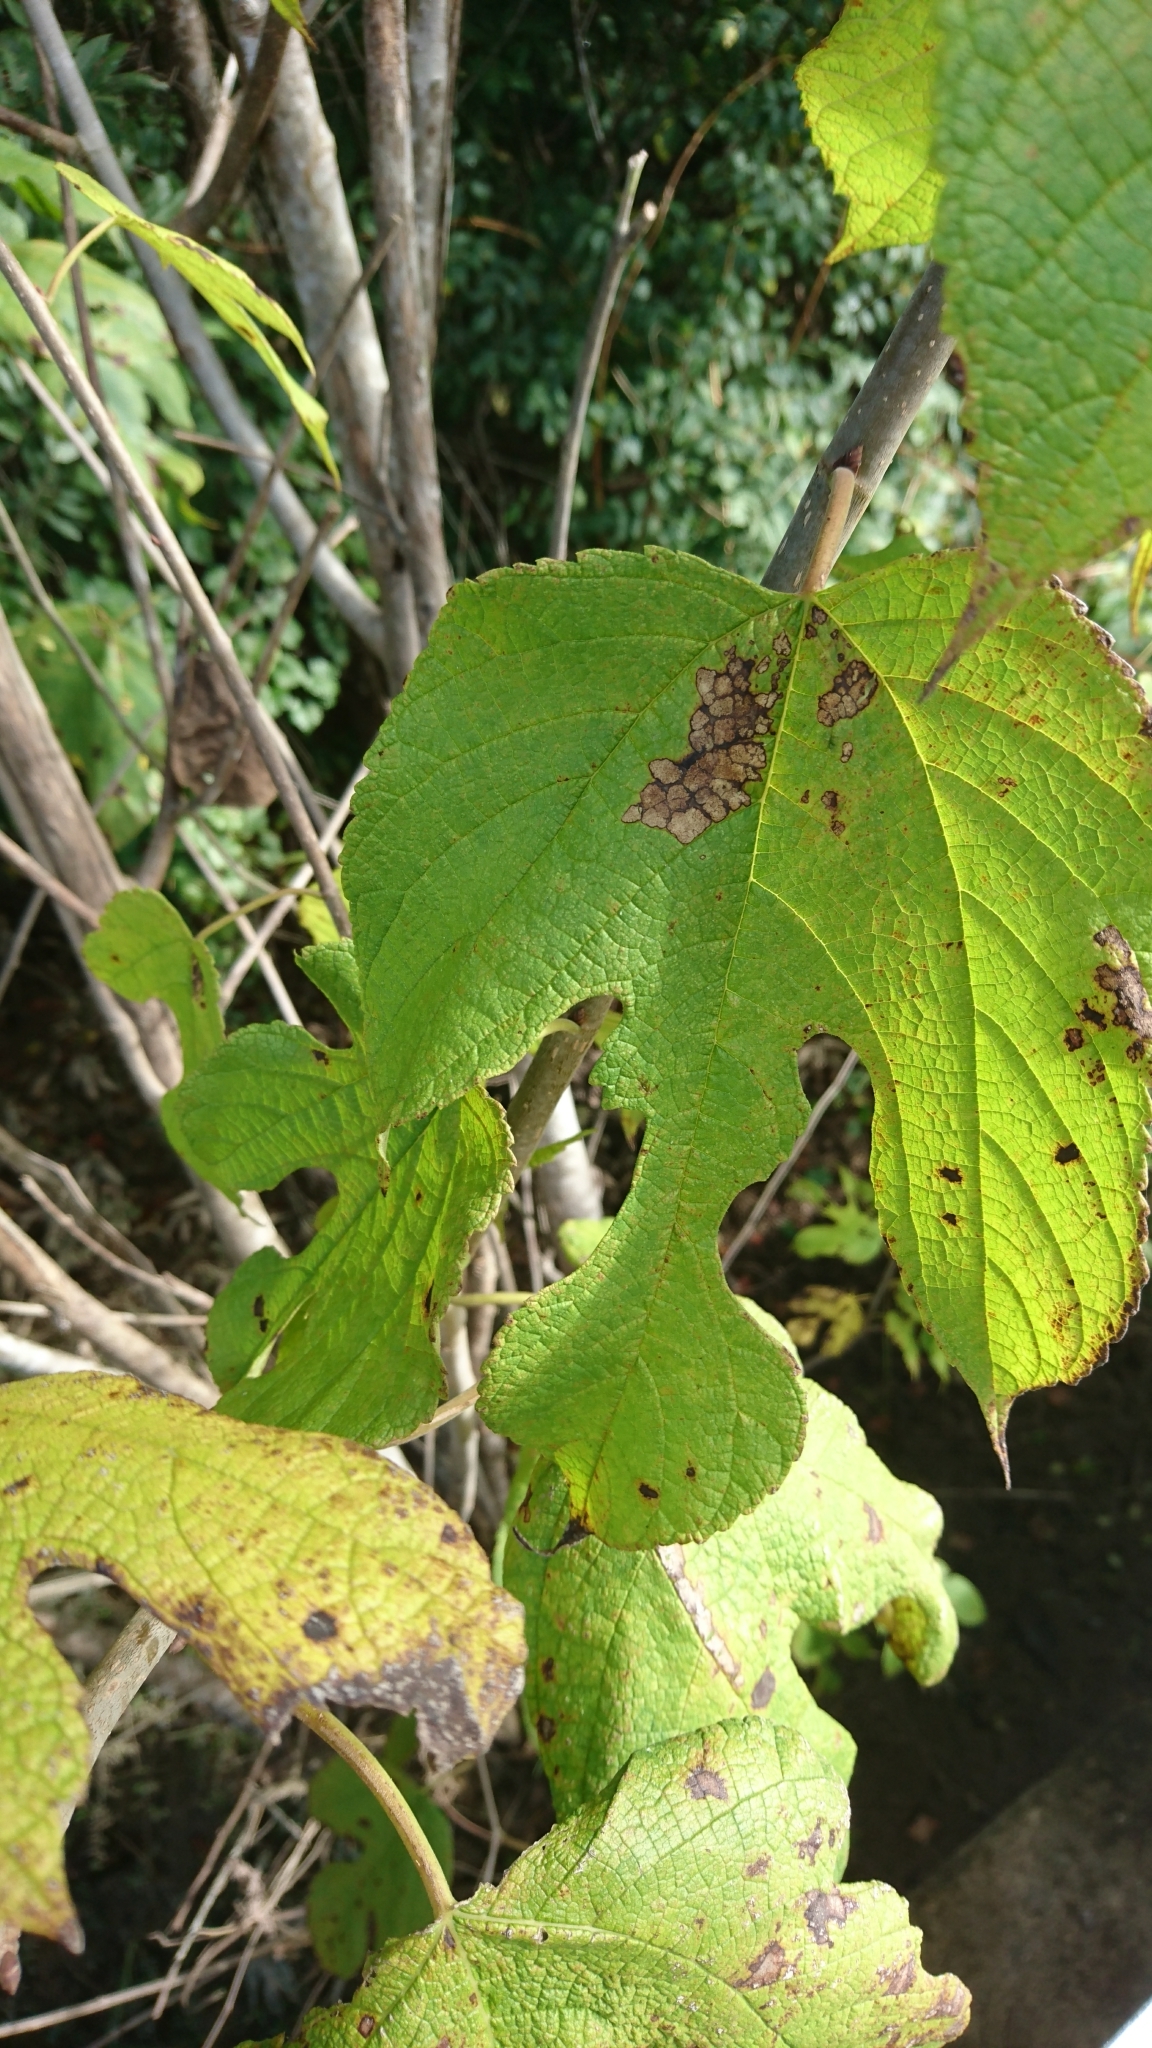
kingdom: Plantae
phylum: Tracheophyta
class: Magnoliopsida
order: Rosales
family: Moraceae
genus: Morus
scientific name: Morus rubra
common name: Red mulberry
